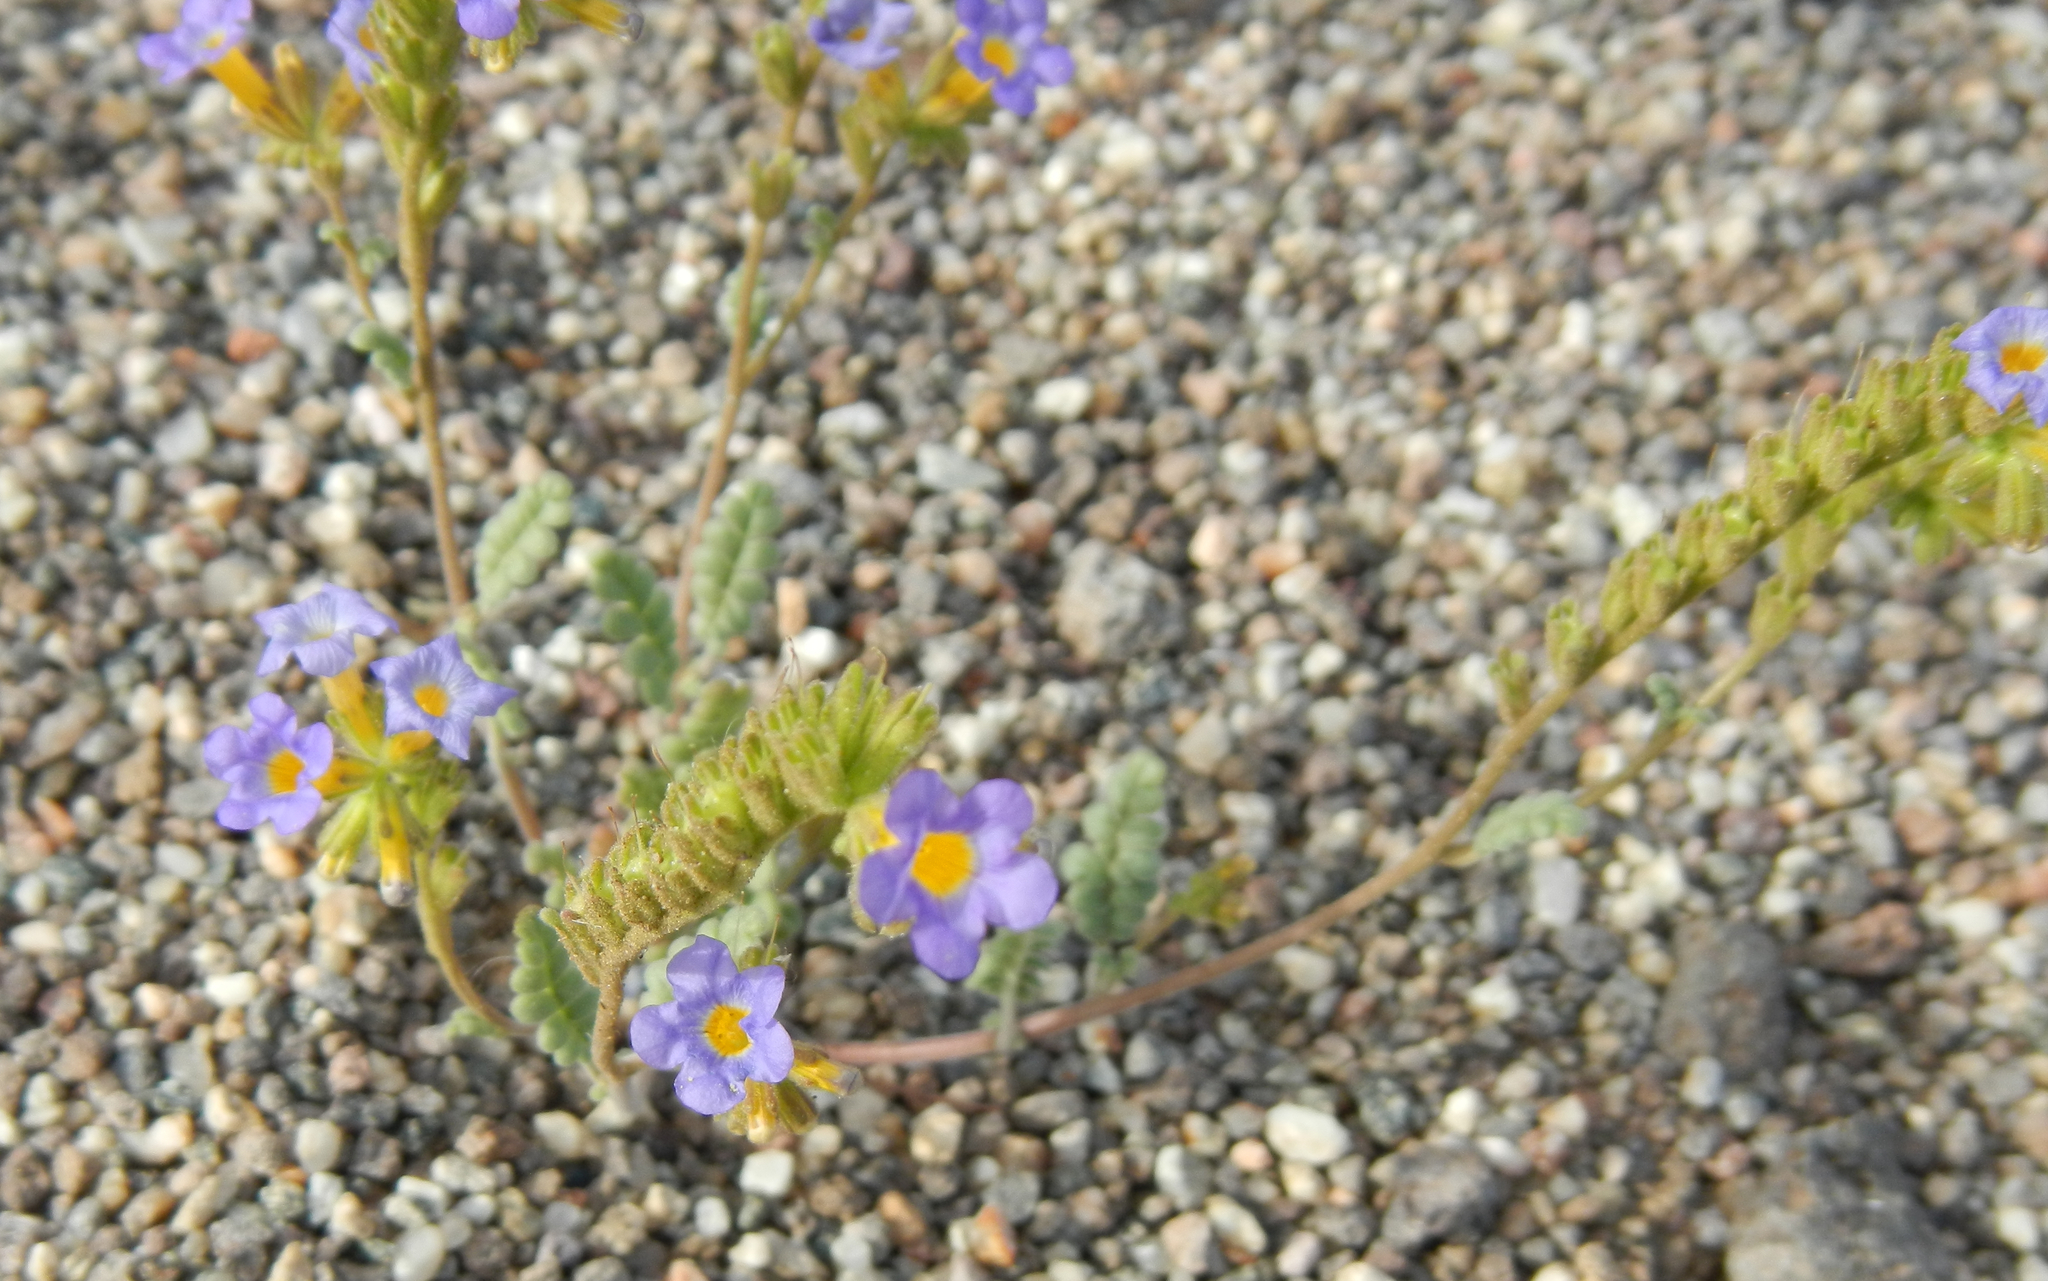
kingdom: Plantae
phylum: Tracheophyta
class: Magnoliopsida
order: Boraginales
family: Hydrophyllaceae
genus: Phacelia
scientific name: Phacelia fremontii
